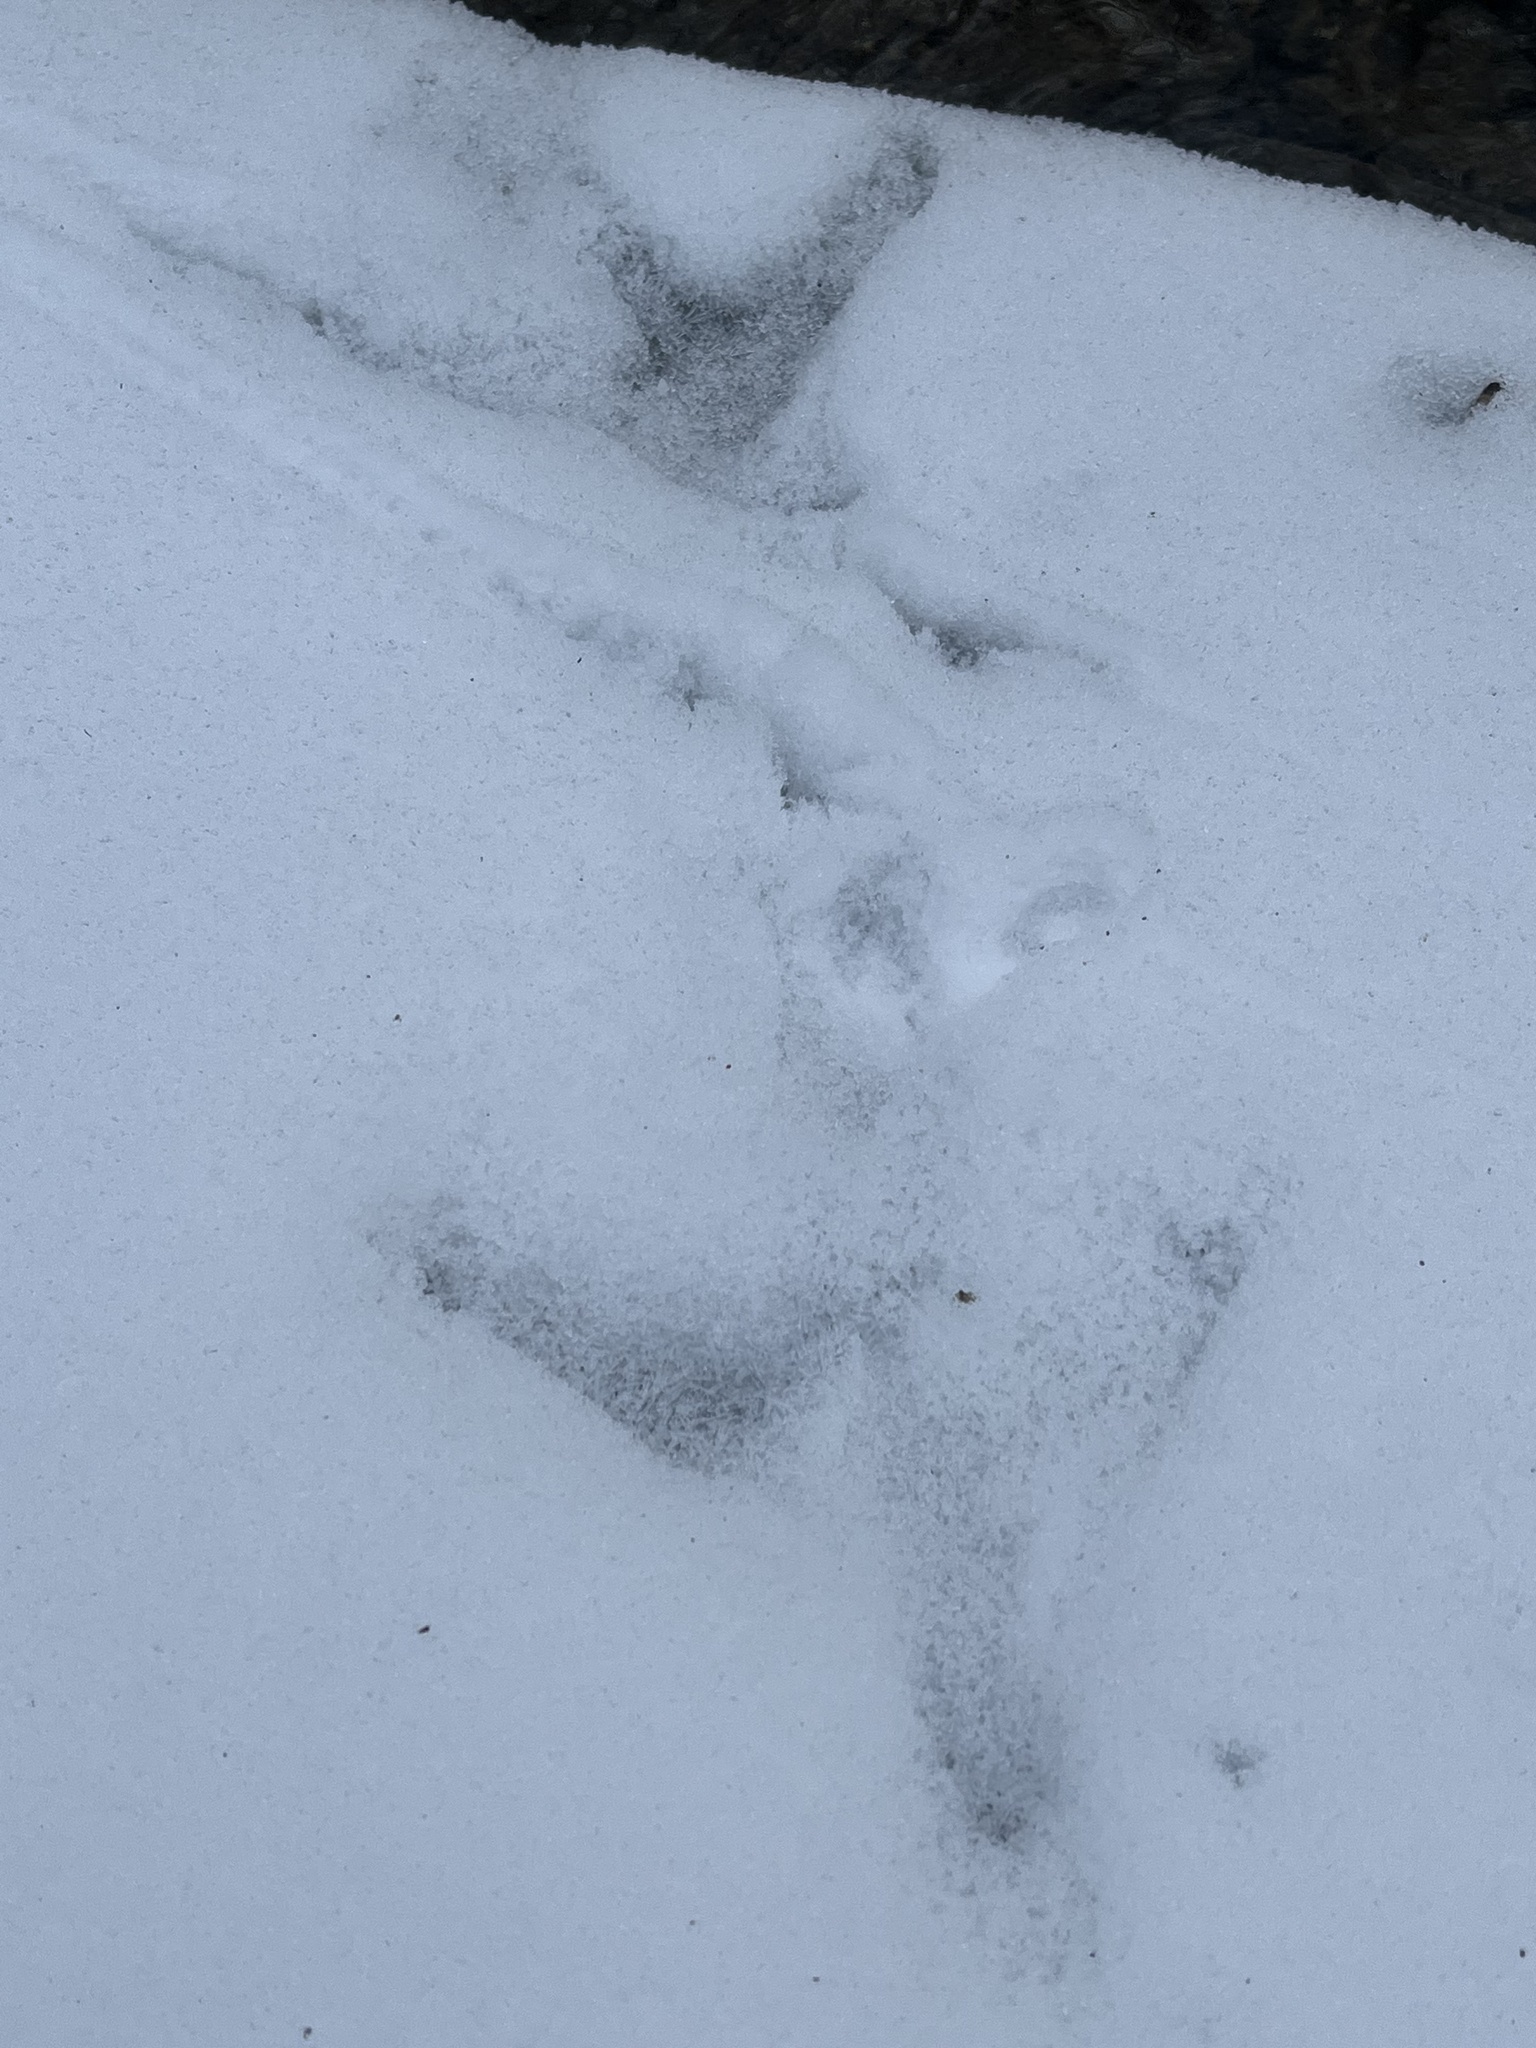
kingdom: Animalia
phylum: Chordata
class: Aves
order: Galliformes
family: Phasianidae
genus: Meleagris
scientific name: Meleagris gallopavo
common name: Wild turkey
